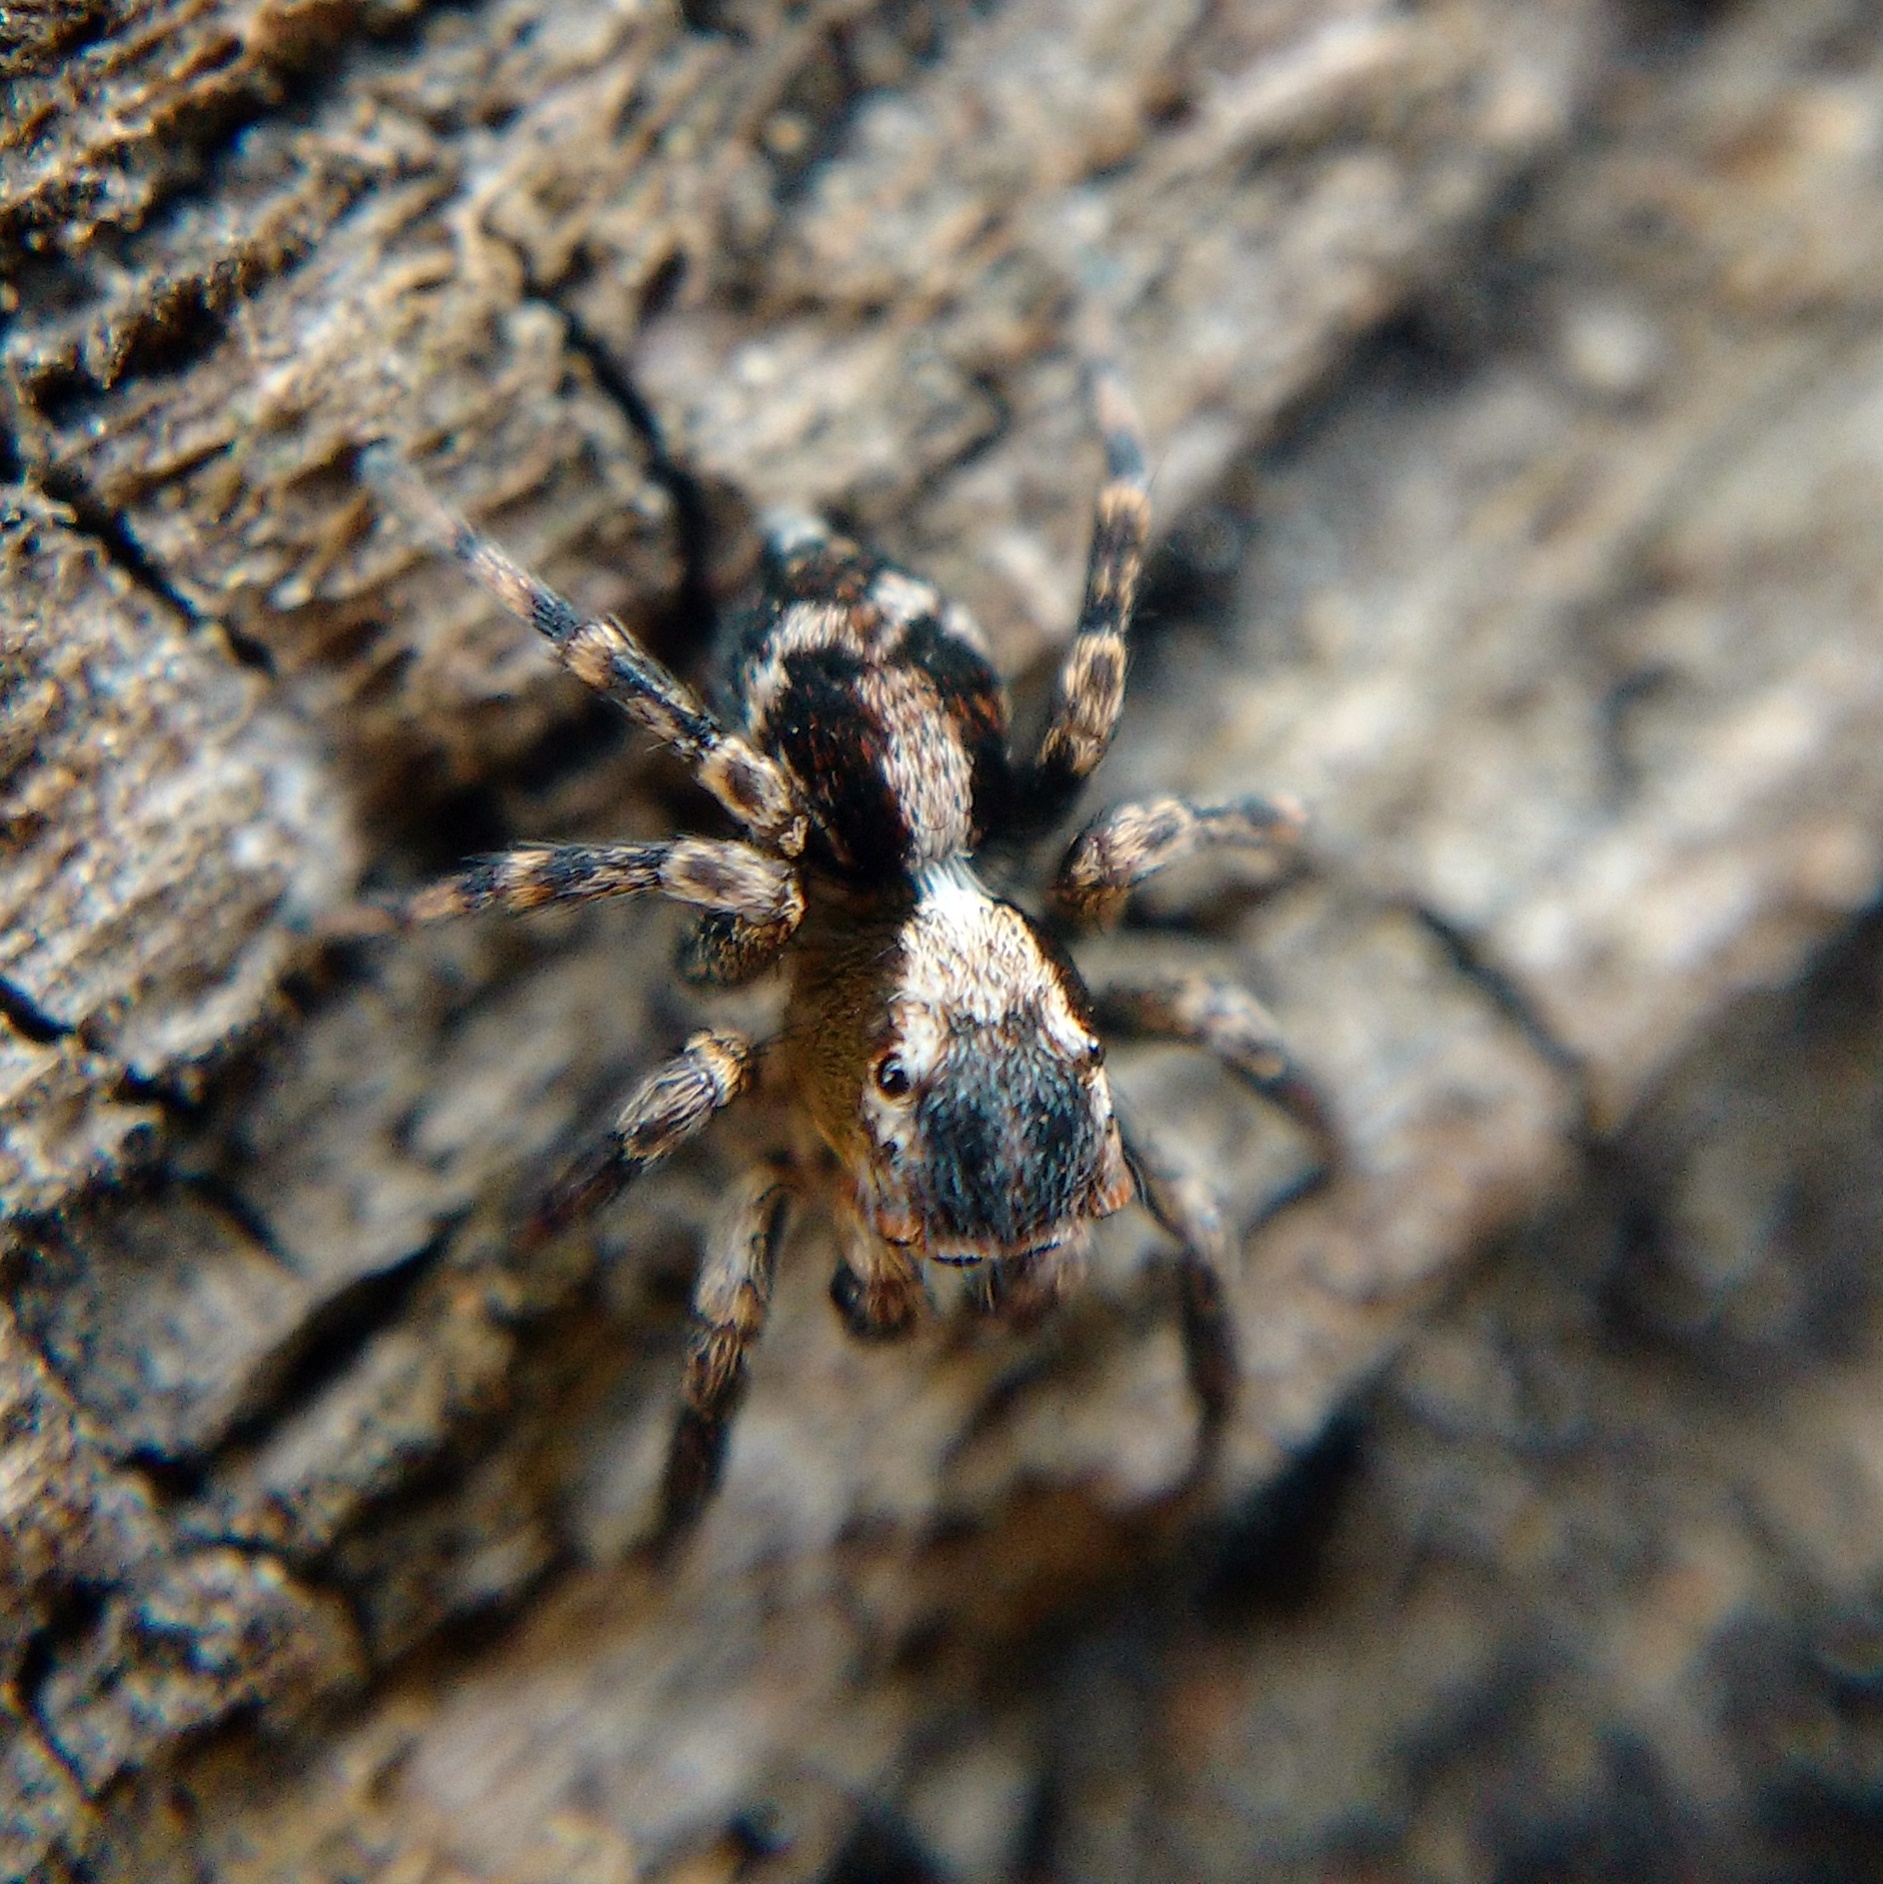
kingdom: Animalia
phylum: Arthropoda
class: Arachnida
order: Araneae
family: Salticidae
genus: Naphrys
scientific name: Naphrys pulex
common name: Flea jumping spider
